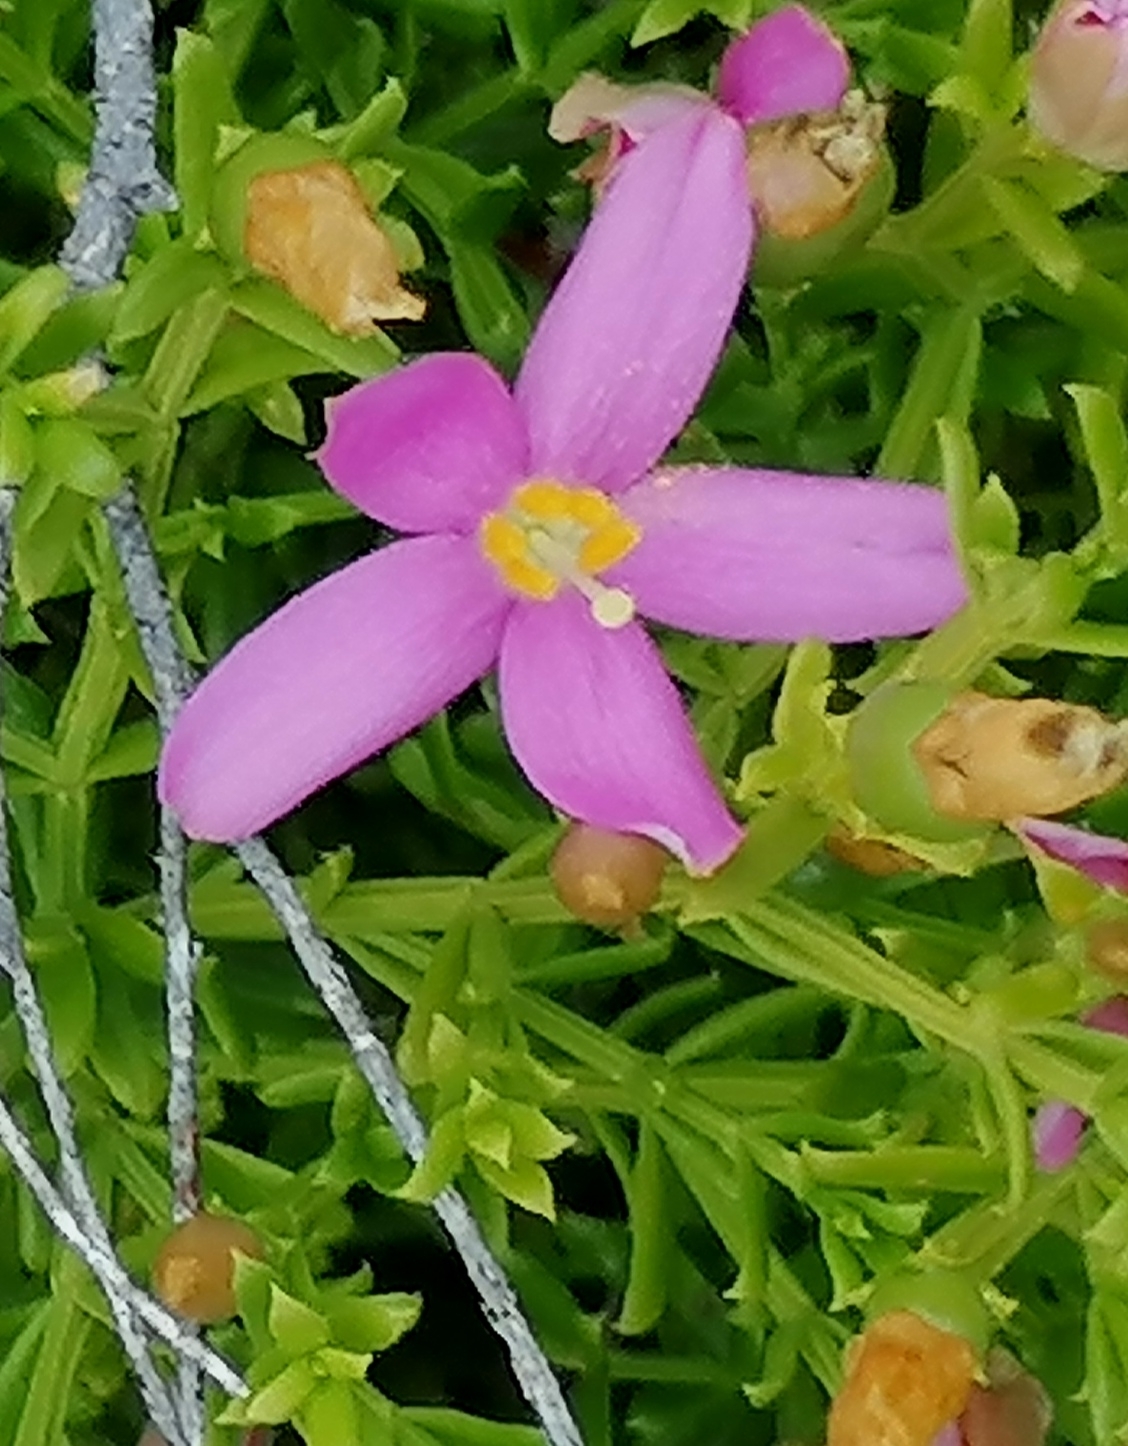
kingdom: Plantae
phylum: Tracheophyta
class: Magnoliopsida
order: Gentianales
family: Gentianaceae
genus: Chironia
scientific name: Chironia baccifera
